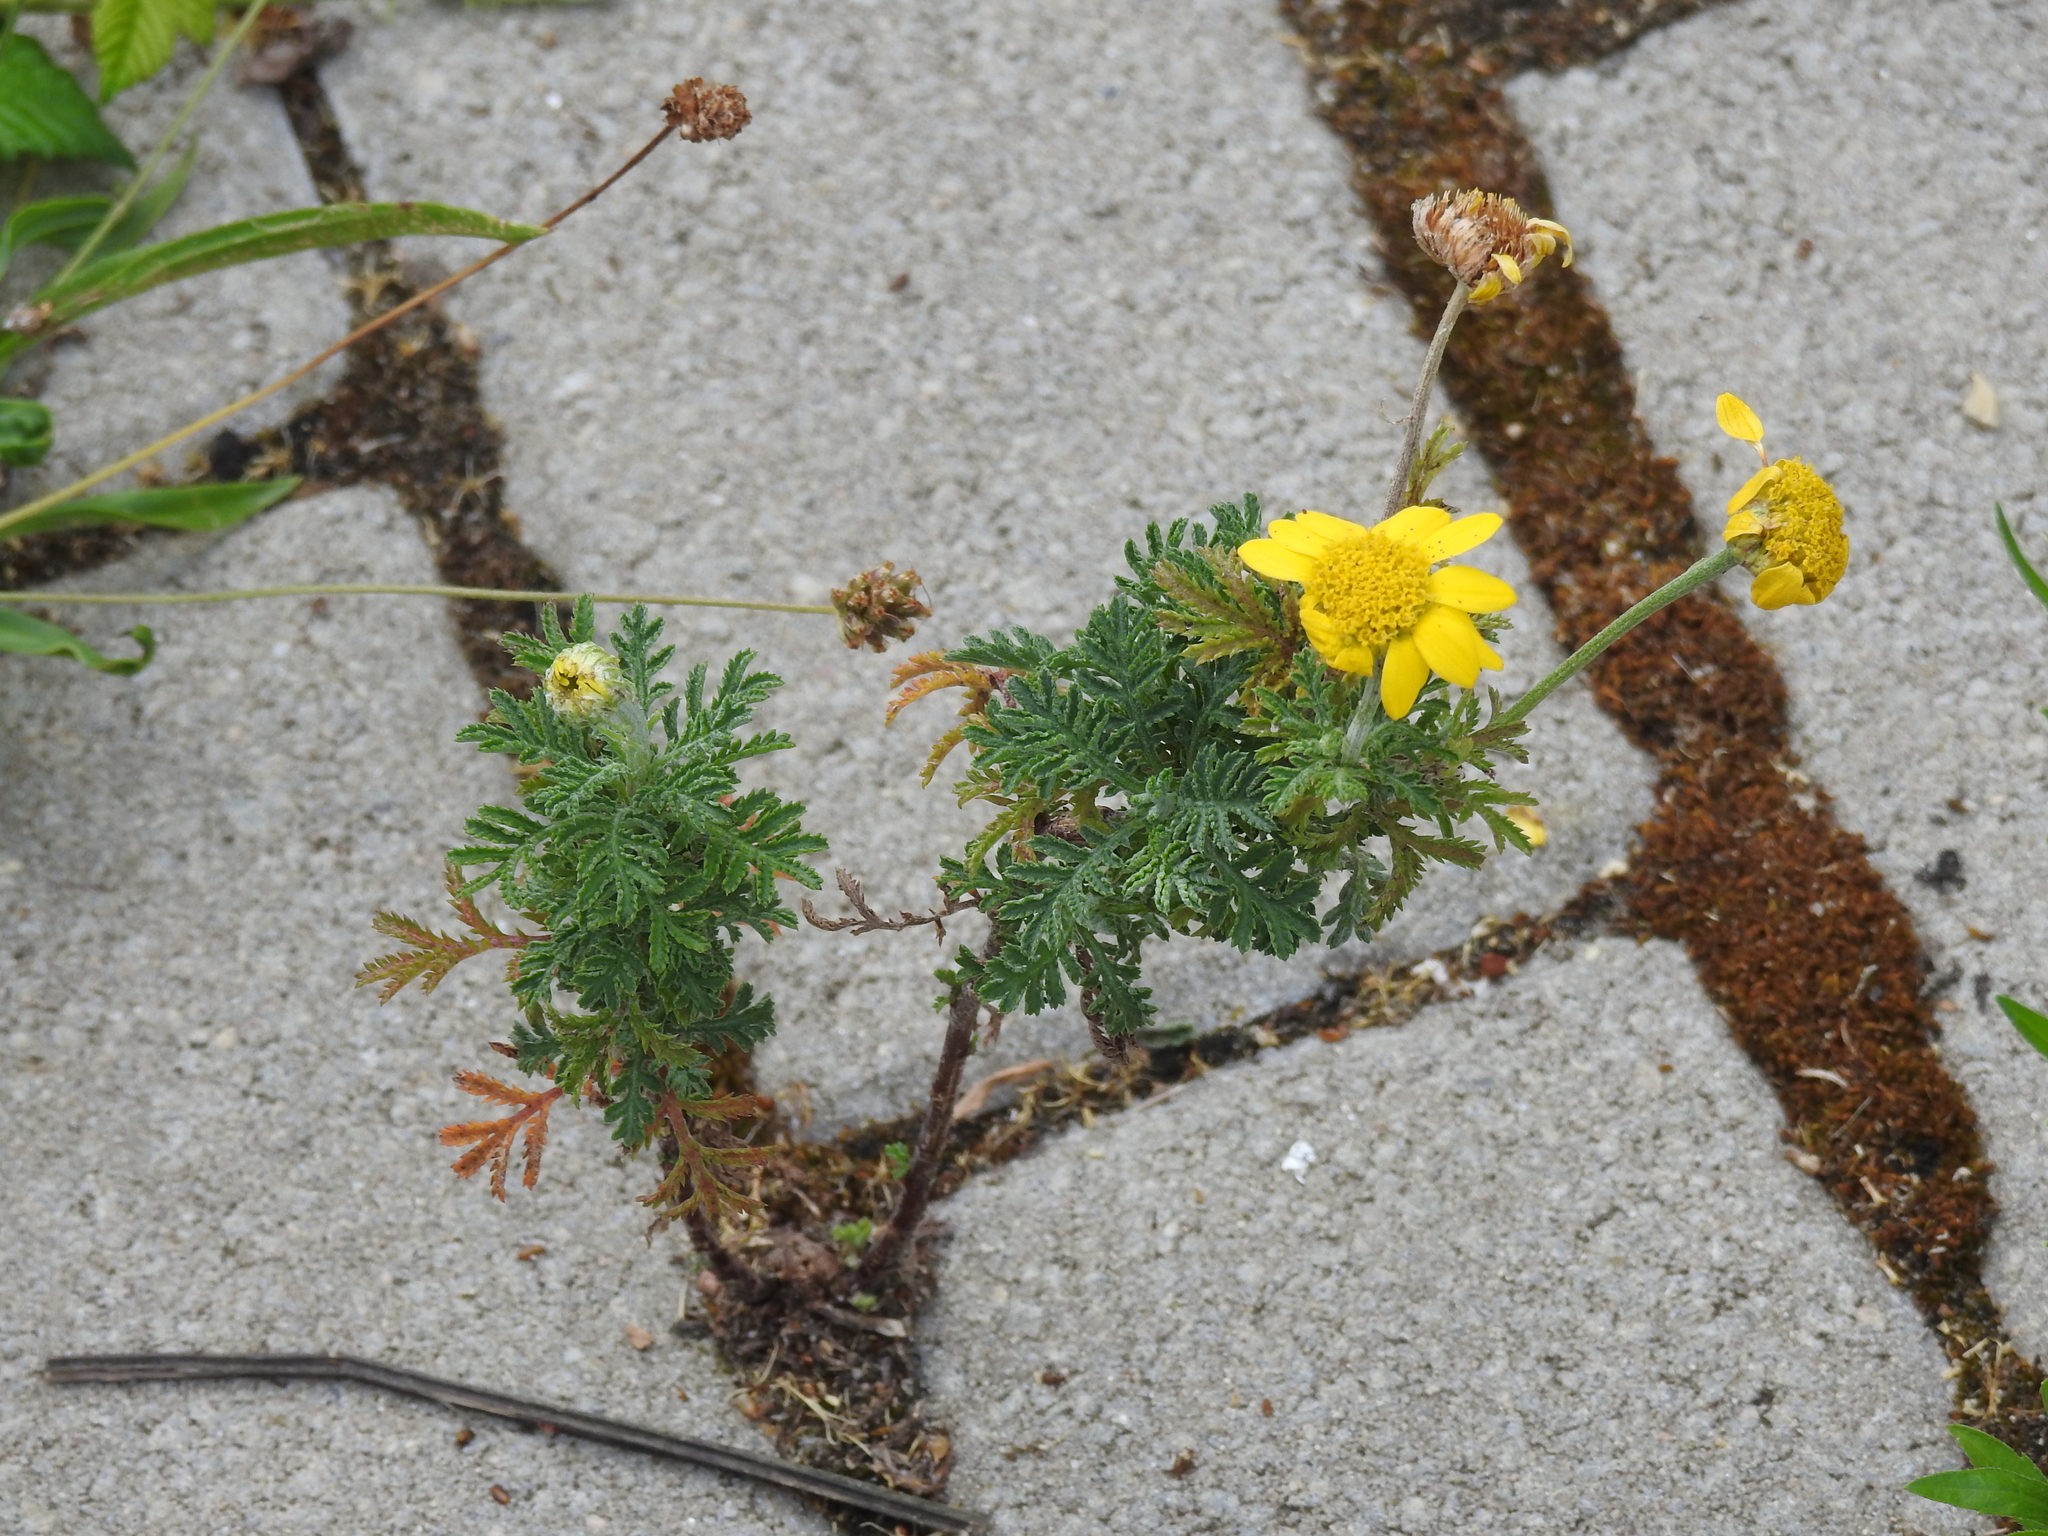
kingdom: Plantae
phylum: Tracheophyta
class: Magnoliopsida
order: Asterales
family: Asteraceae
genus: Cota
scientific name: Cota tinctoria
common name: Golden chamomile
